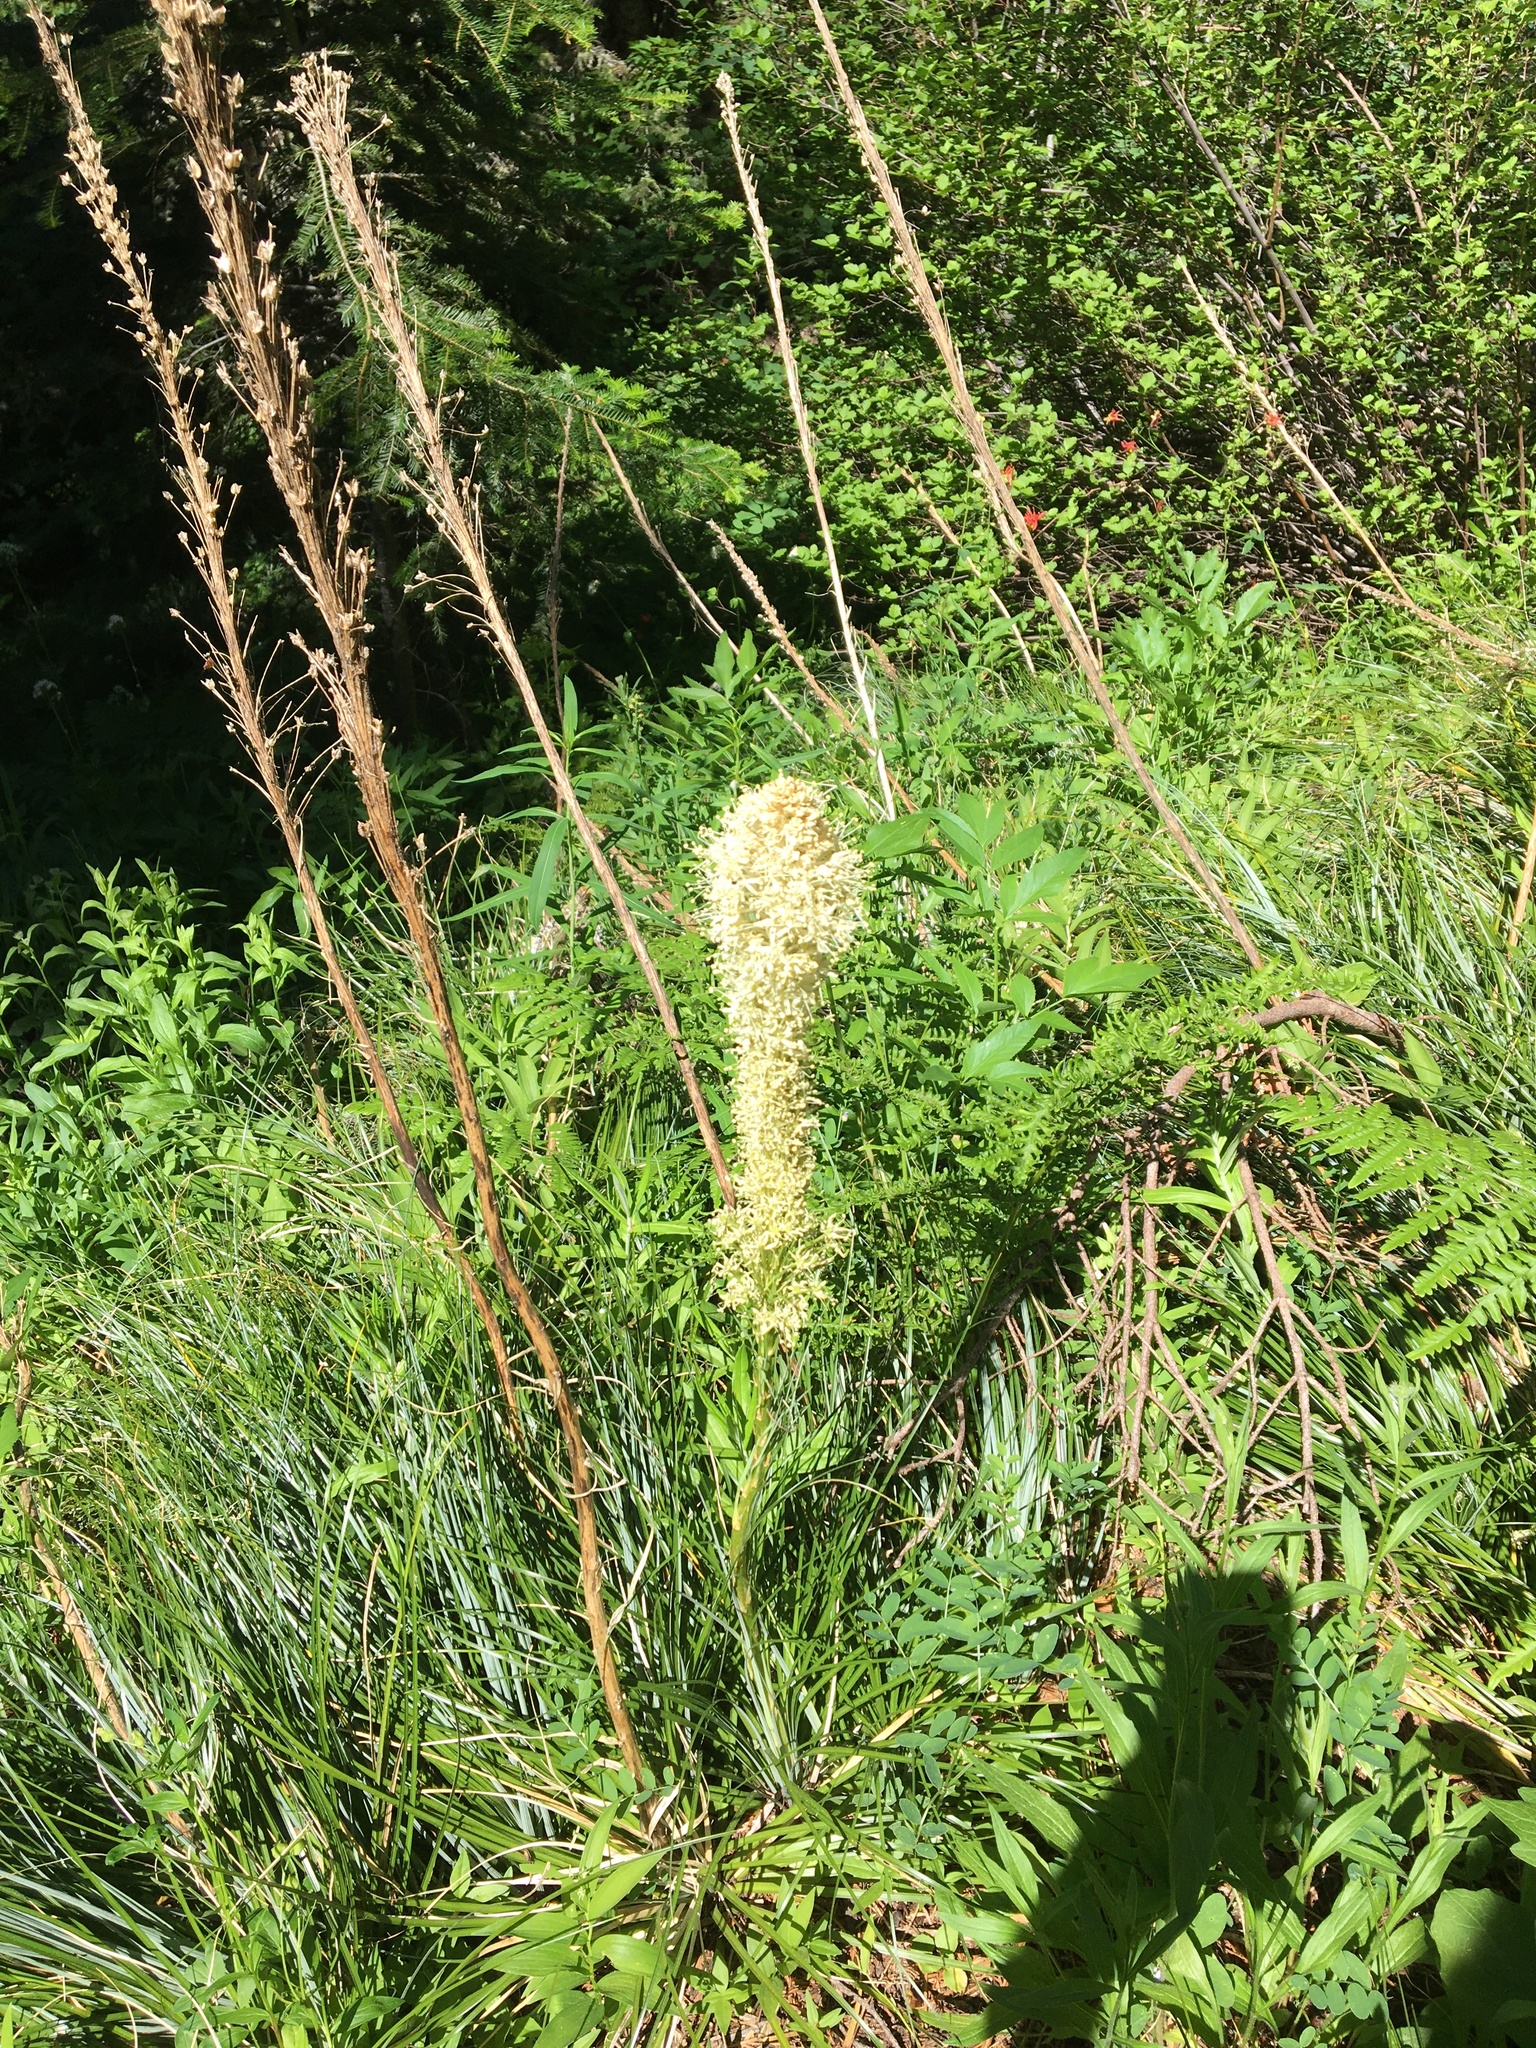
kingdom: Plantae
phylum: Tracheophyta
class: Liliopsida
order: Liliales
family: Melanthiaceae
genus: Xerophyllum
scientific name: Xerophyllum tenax
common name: Bear-grass
